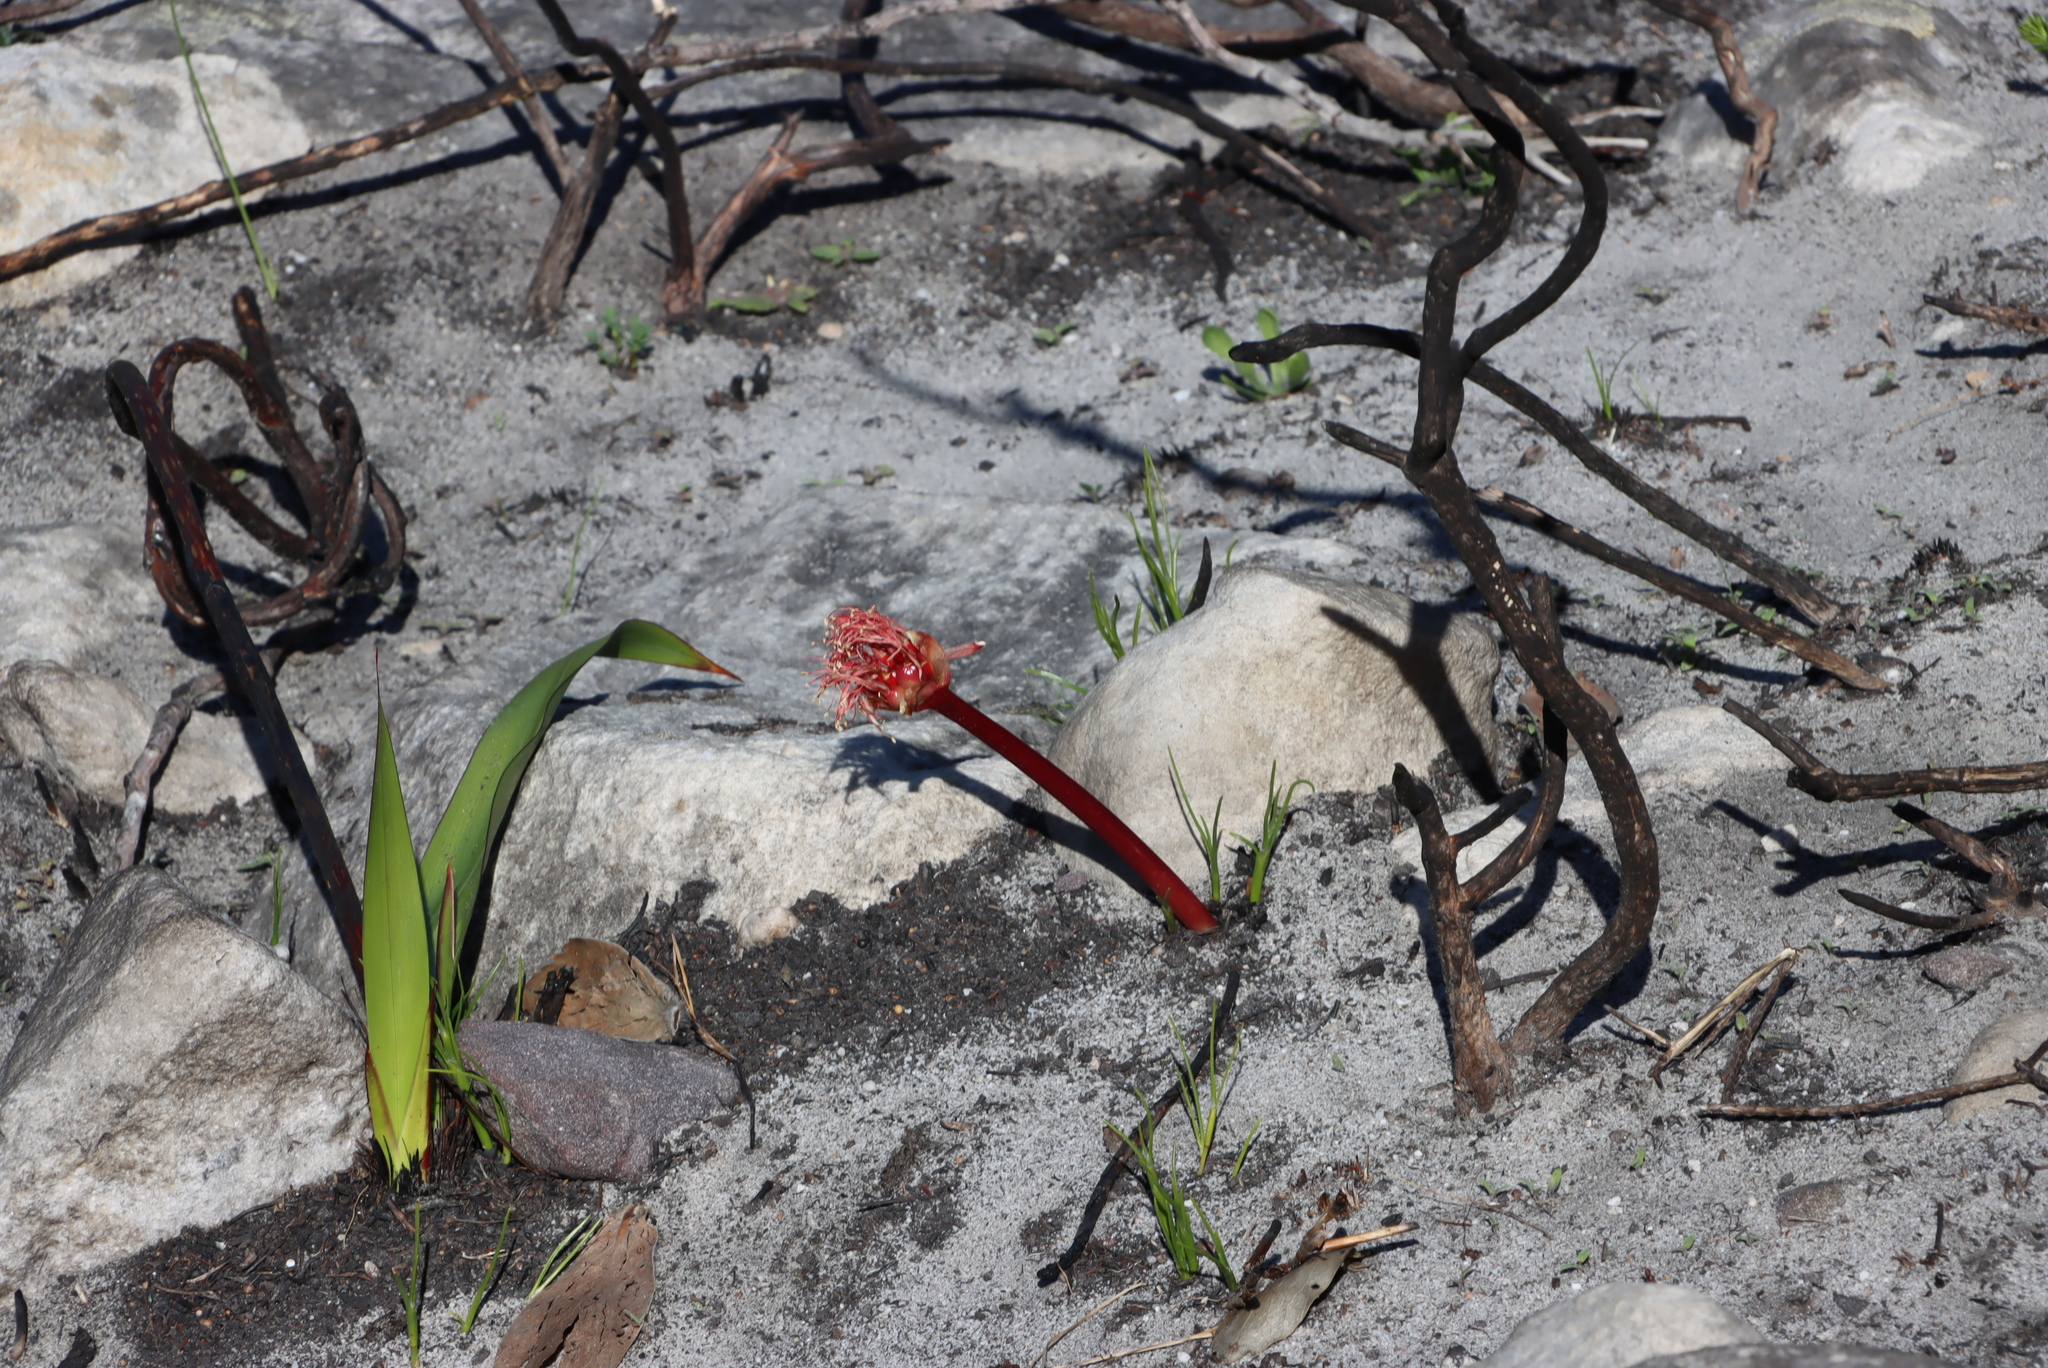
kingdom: Plantae
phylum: Tracheophyta
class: Liliopsida
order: Asparagales
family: Amaryllidaceae
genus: Haemanthus
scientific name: Haemanthus sanguineus
